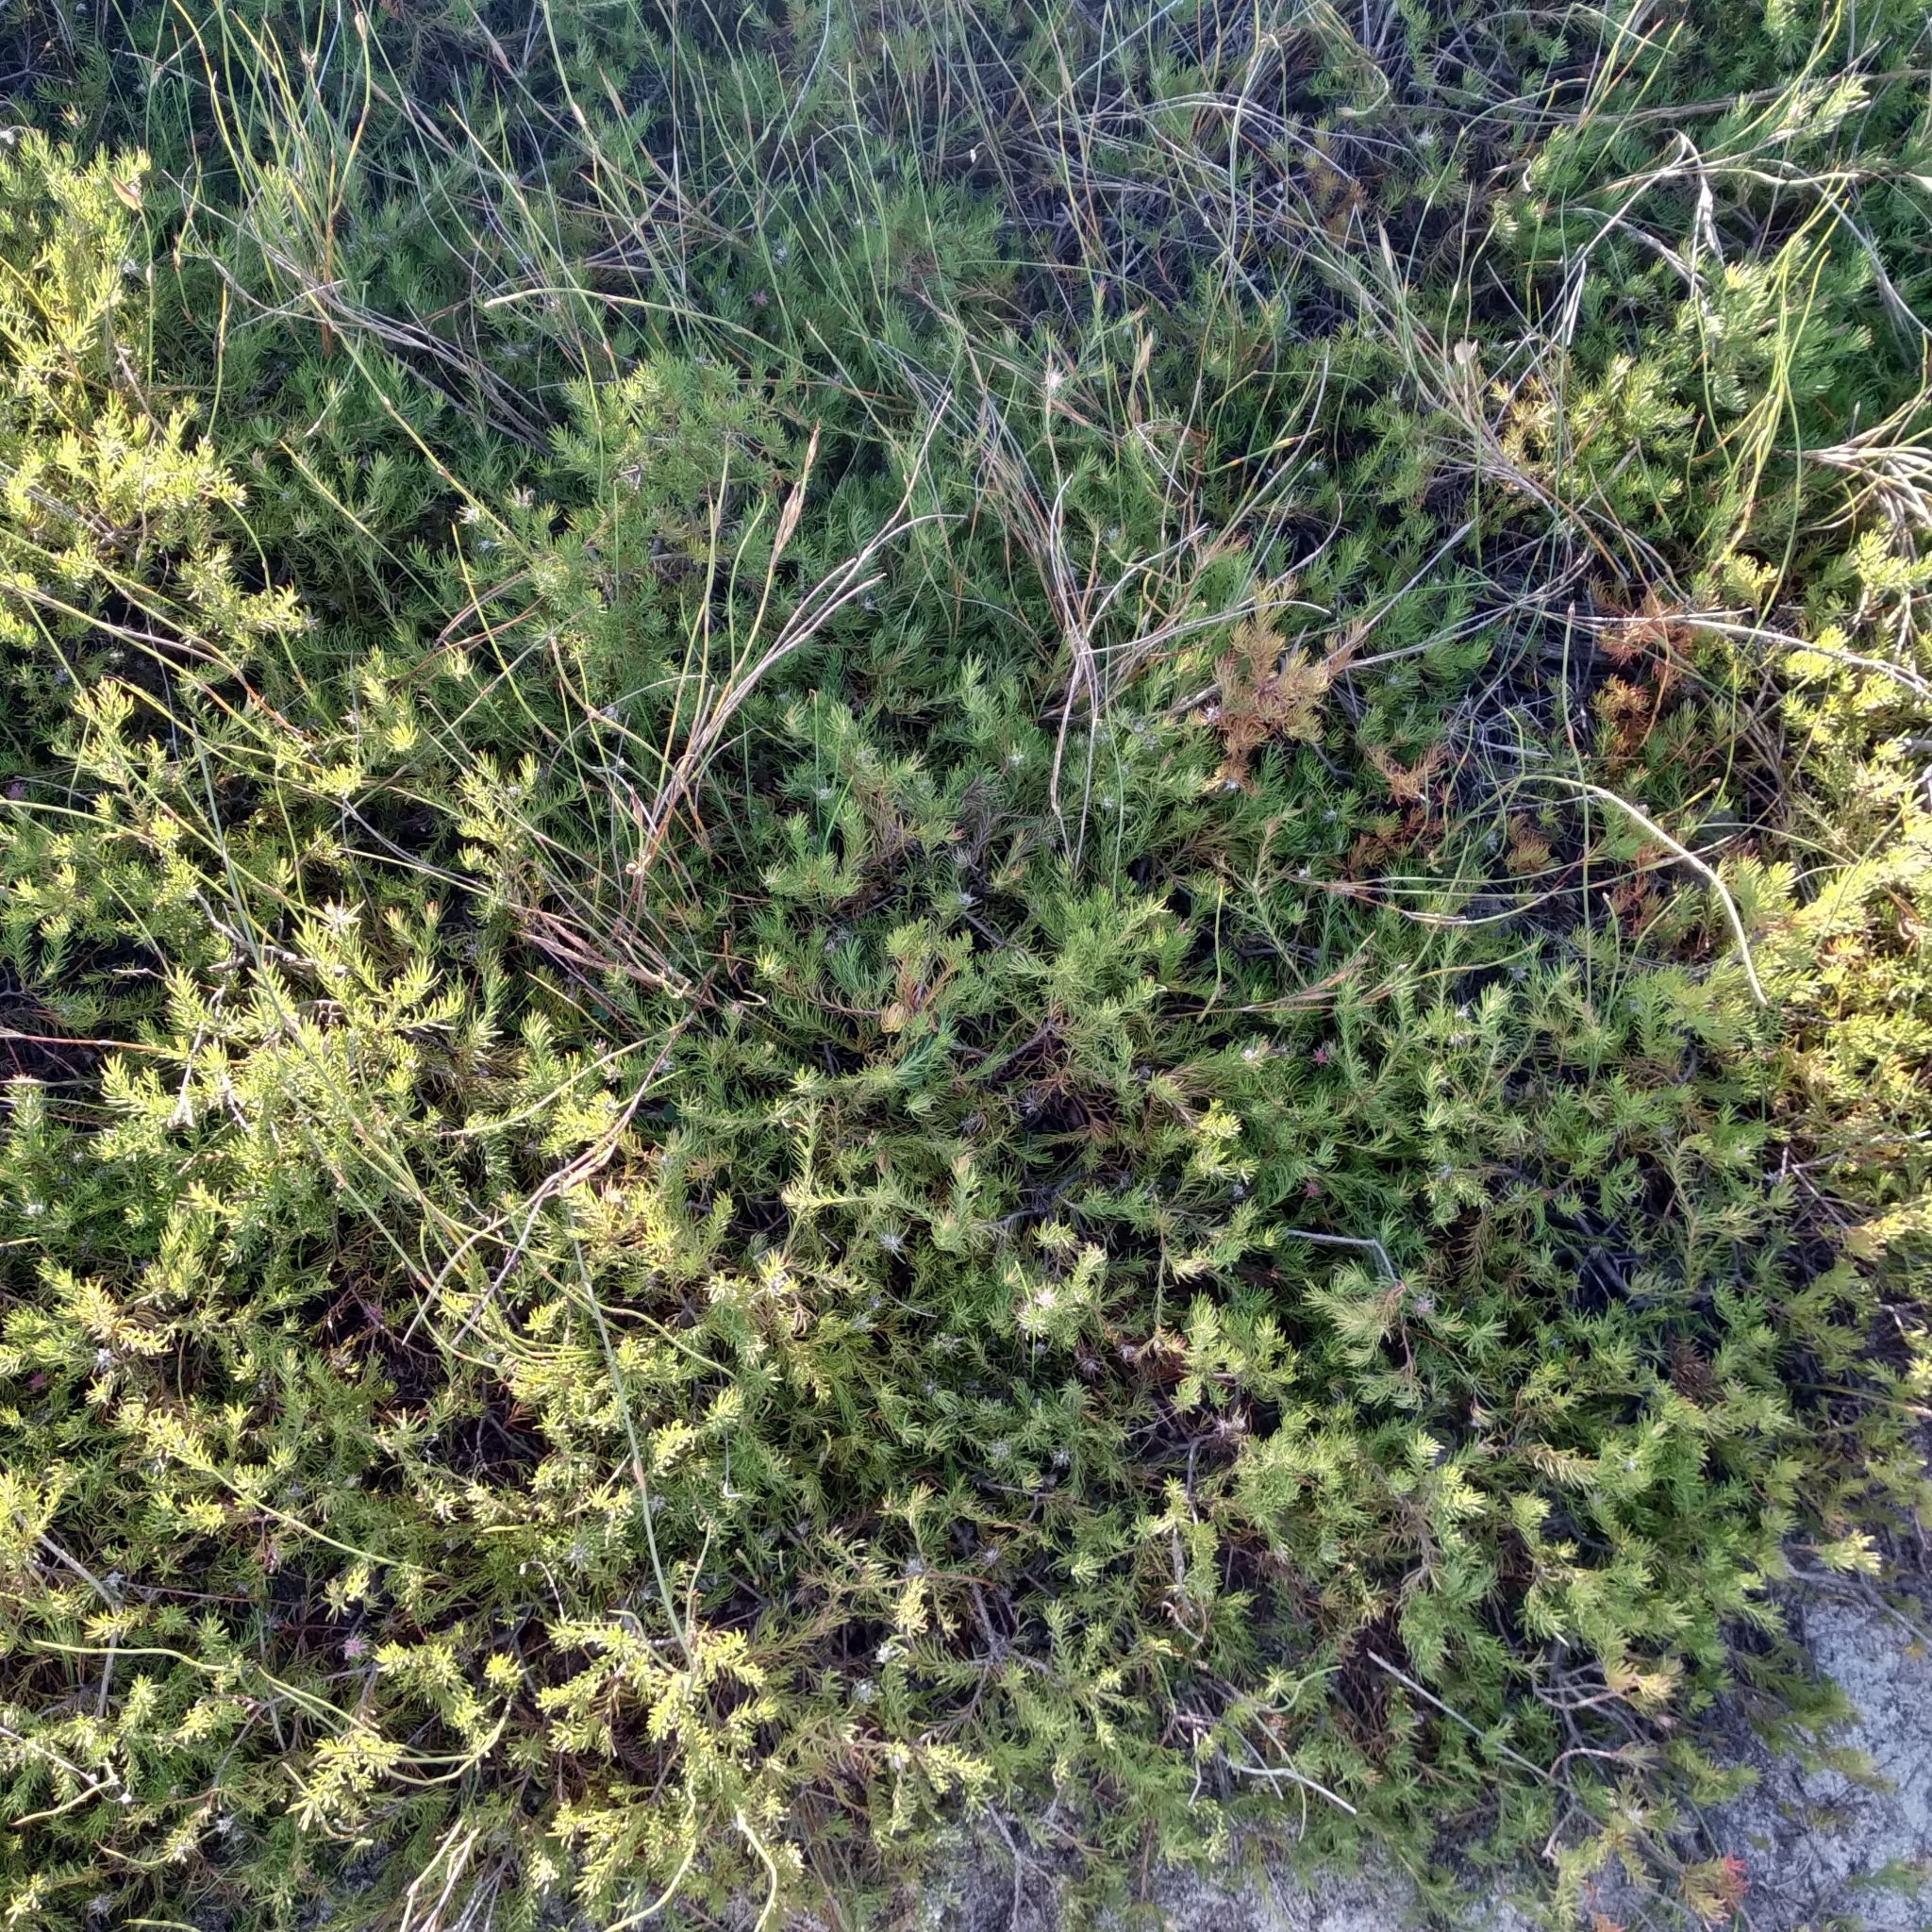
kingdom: Plantae
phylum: Tracheophyta
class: Magnoliopsida
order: Proteales
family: Proteaceae
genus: Diastella
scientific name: Diastella proteoides
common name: Flats silkypuff
